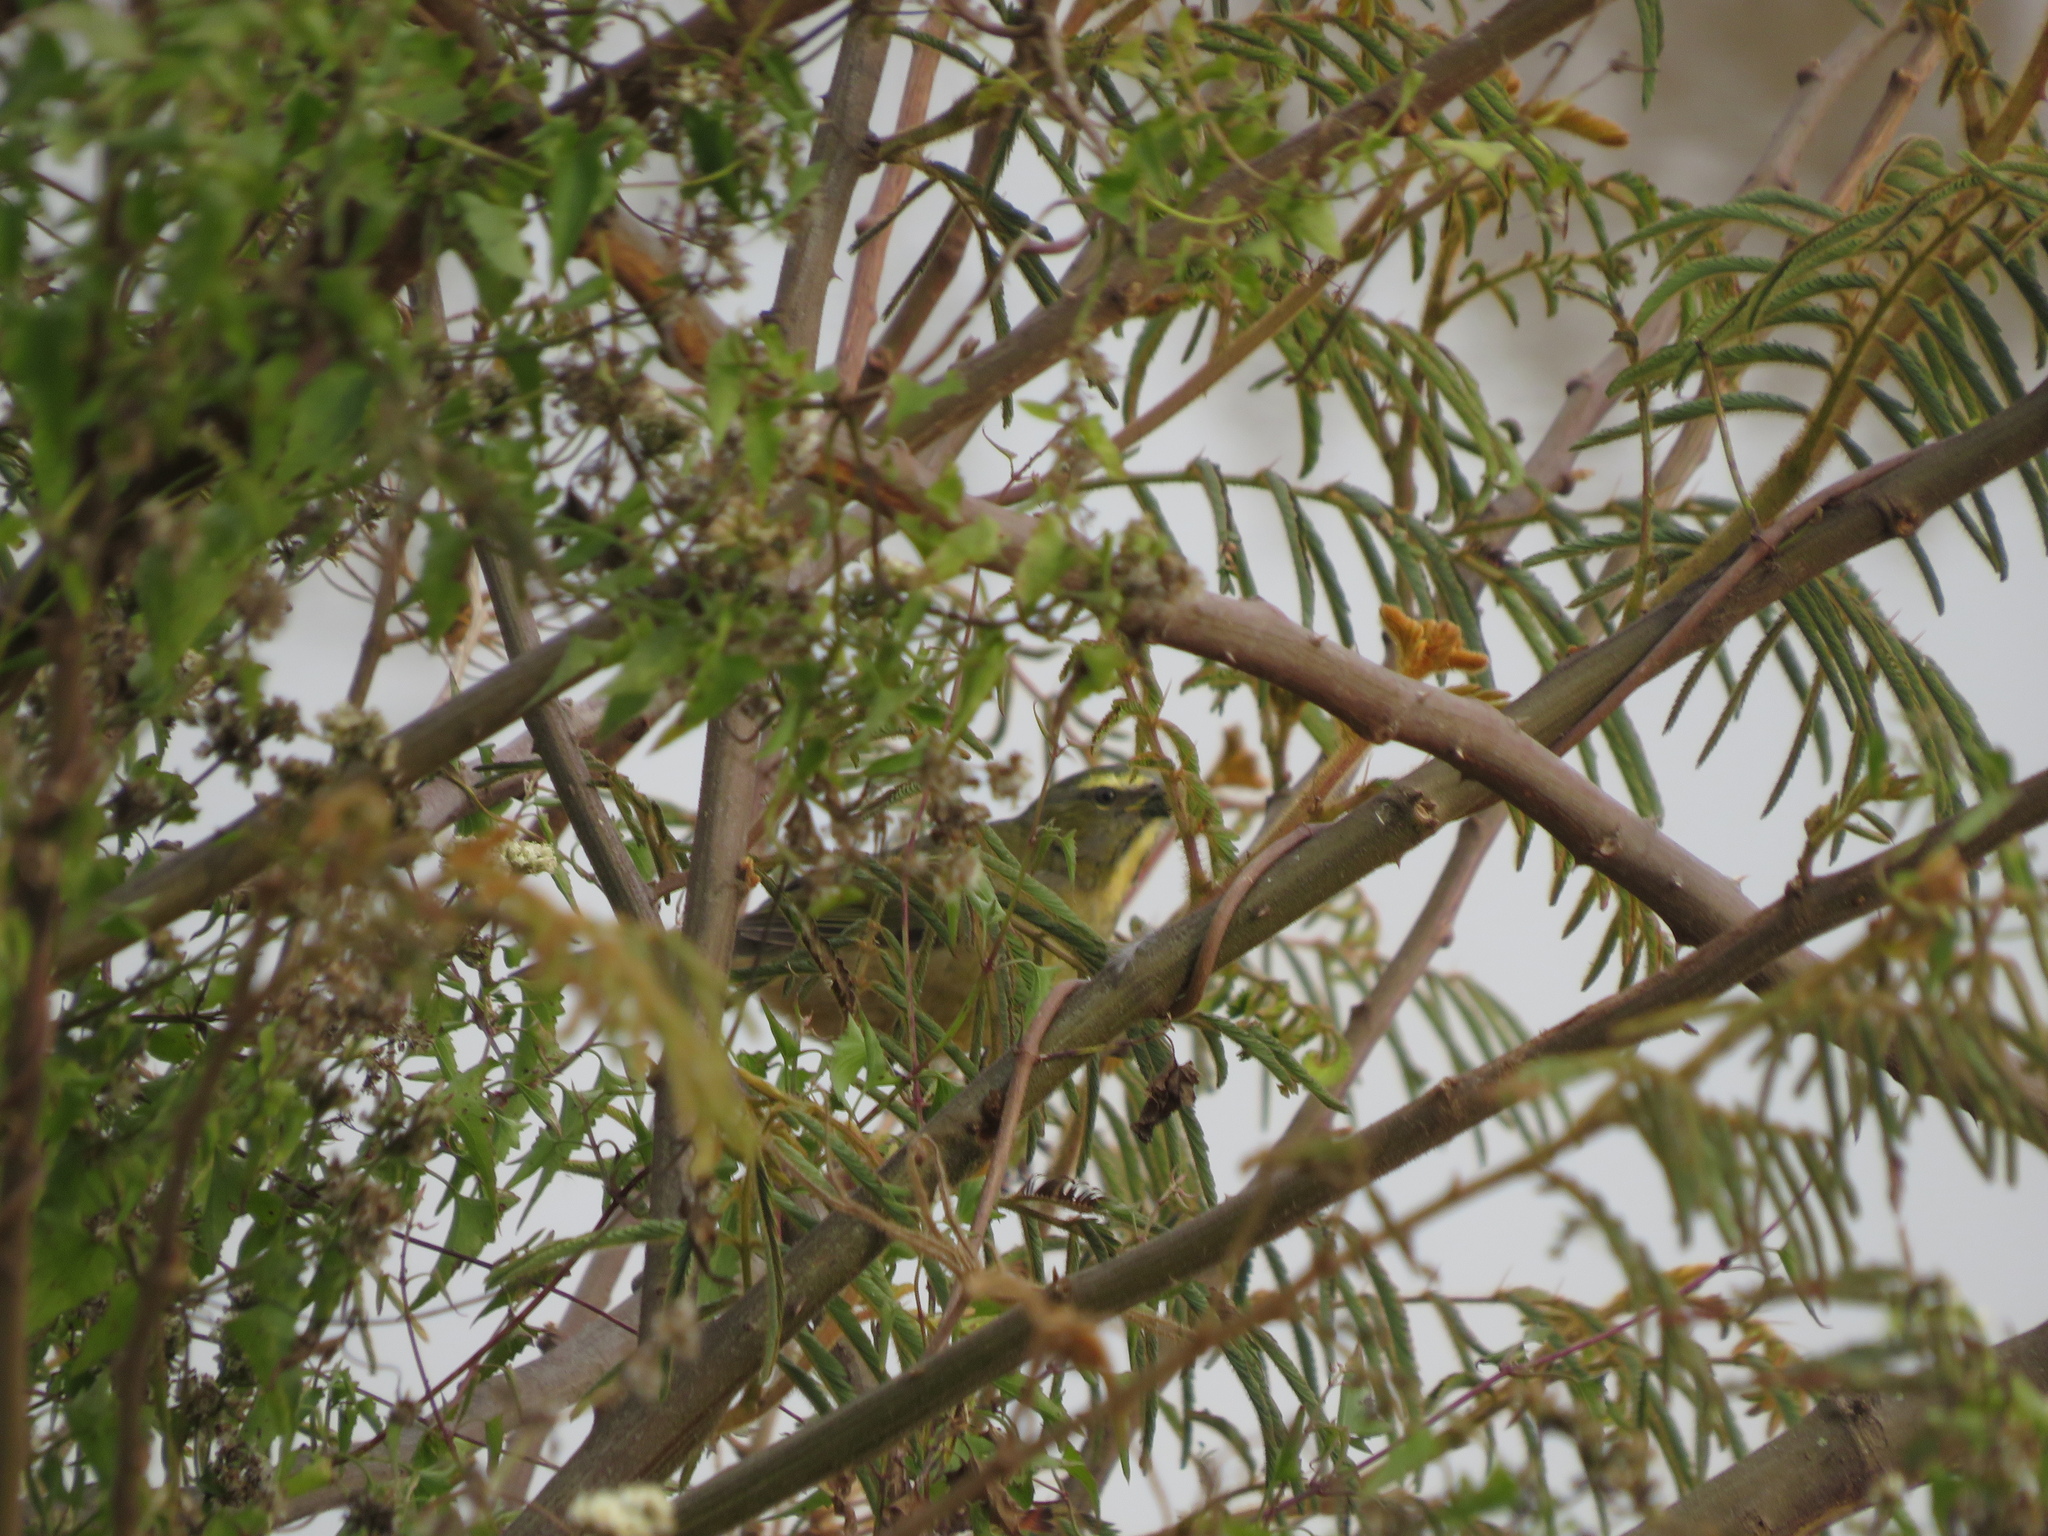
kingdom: Animalia
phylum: Chordata
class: Aves
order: Passeriformes
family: Thraupidae
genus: Saltator
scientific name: Saltator coerulescens
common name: Grayish saltator
